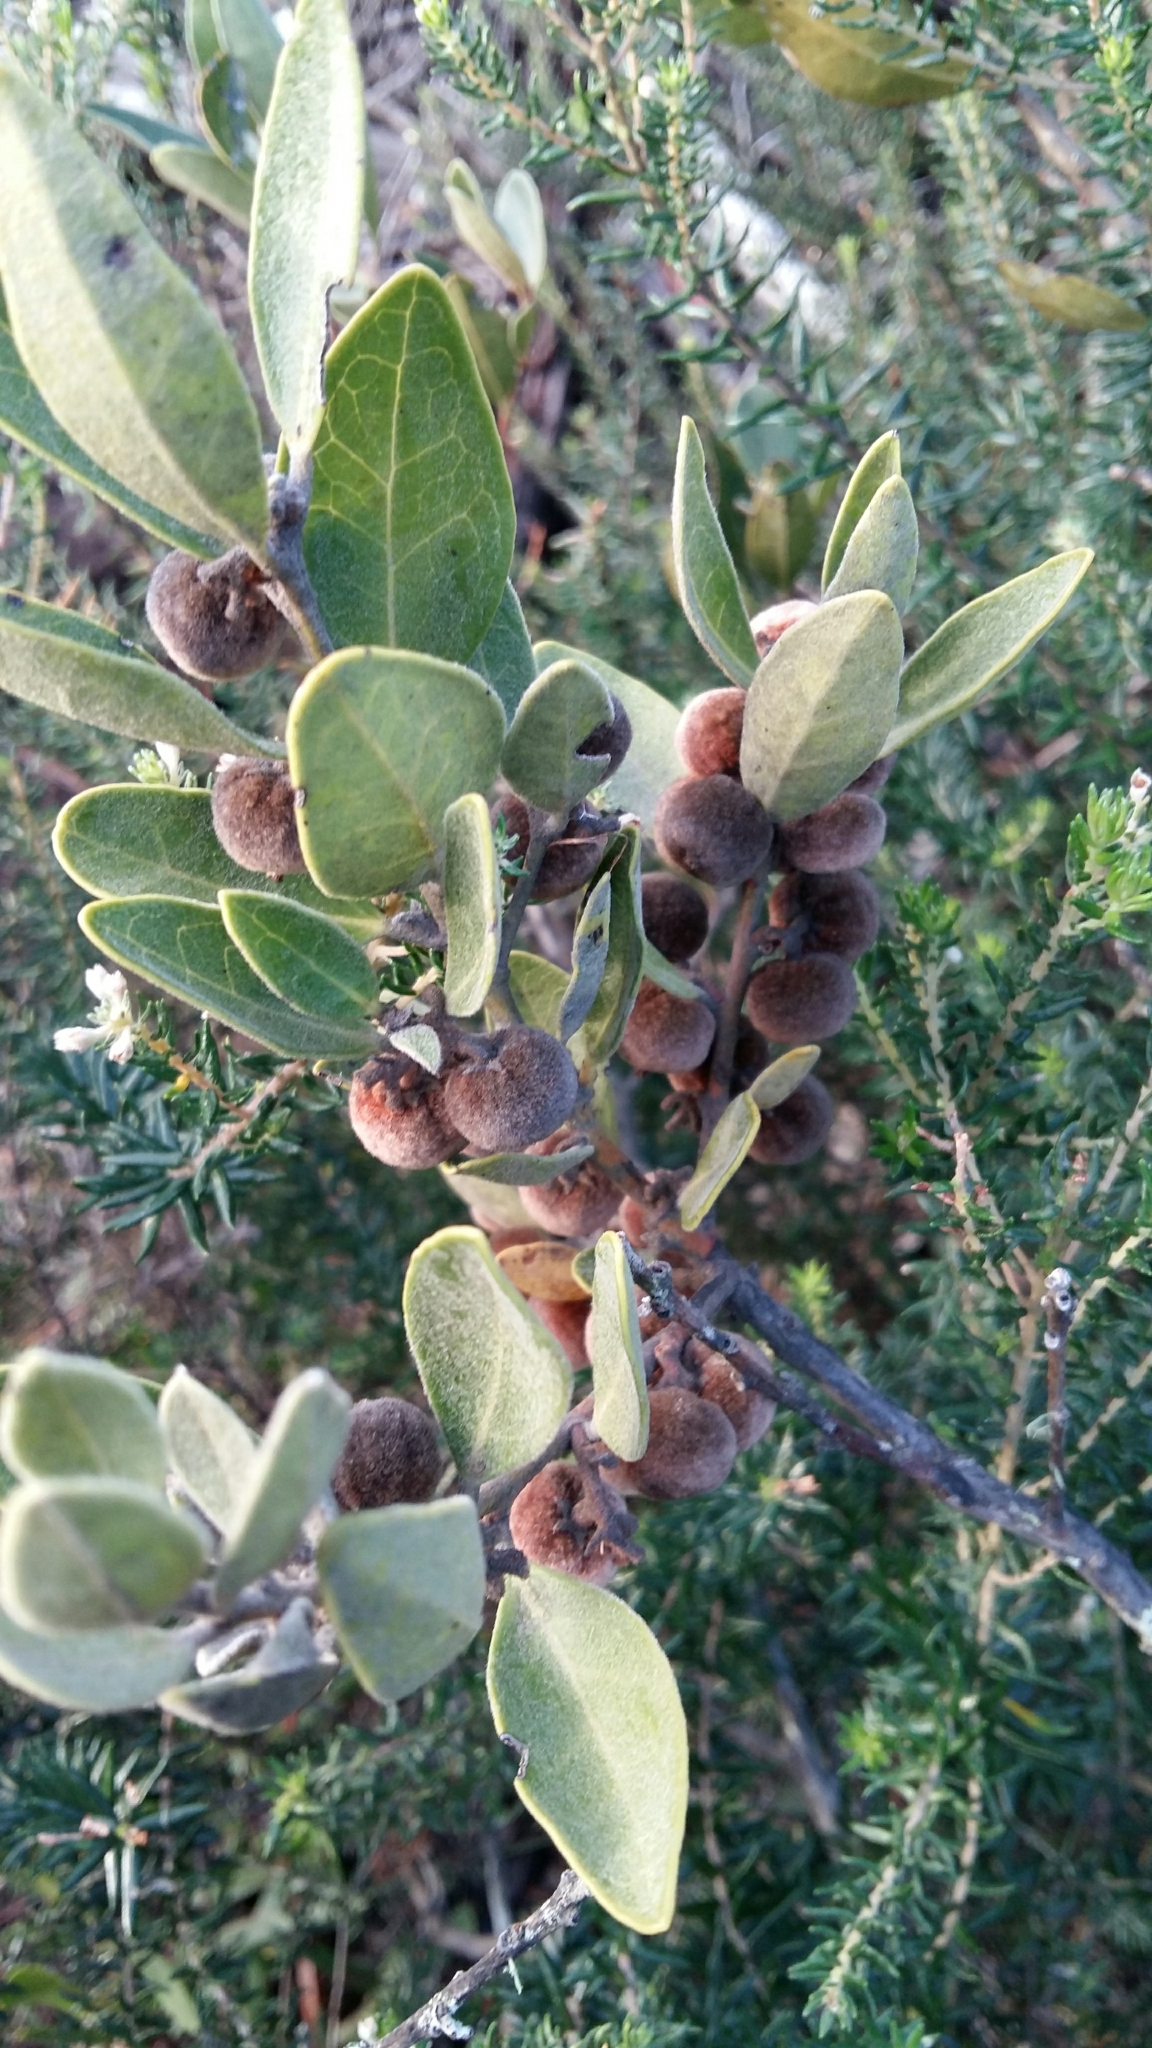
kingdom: Plantae
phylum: Tracheophyta
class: Magnoliopsida
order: Ericales
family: Ebenaceae
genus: Euclea
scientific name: Euclea polyandra
